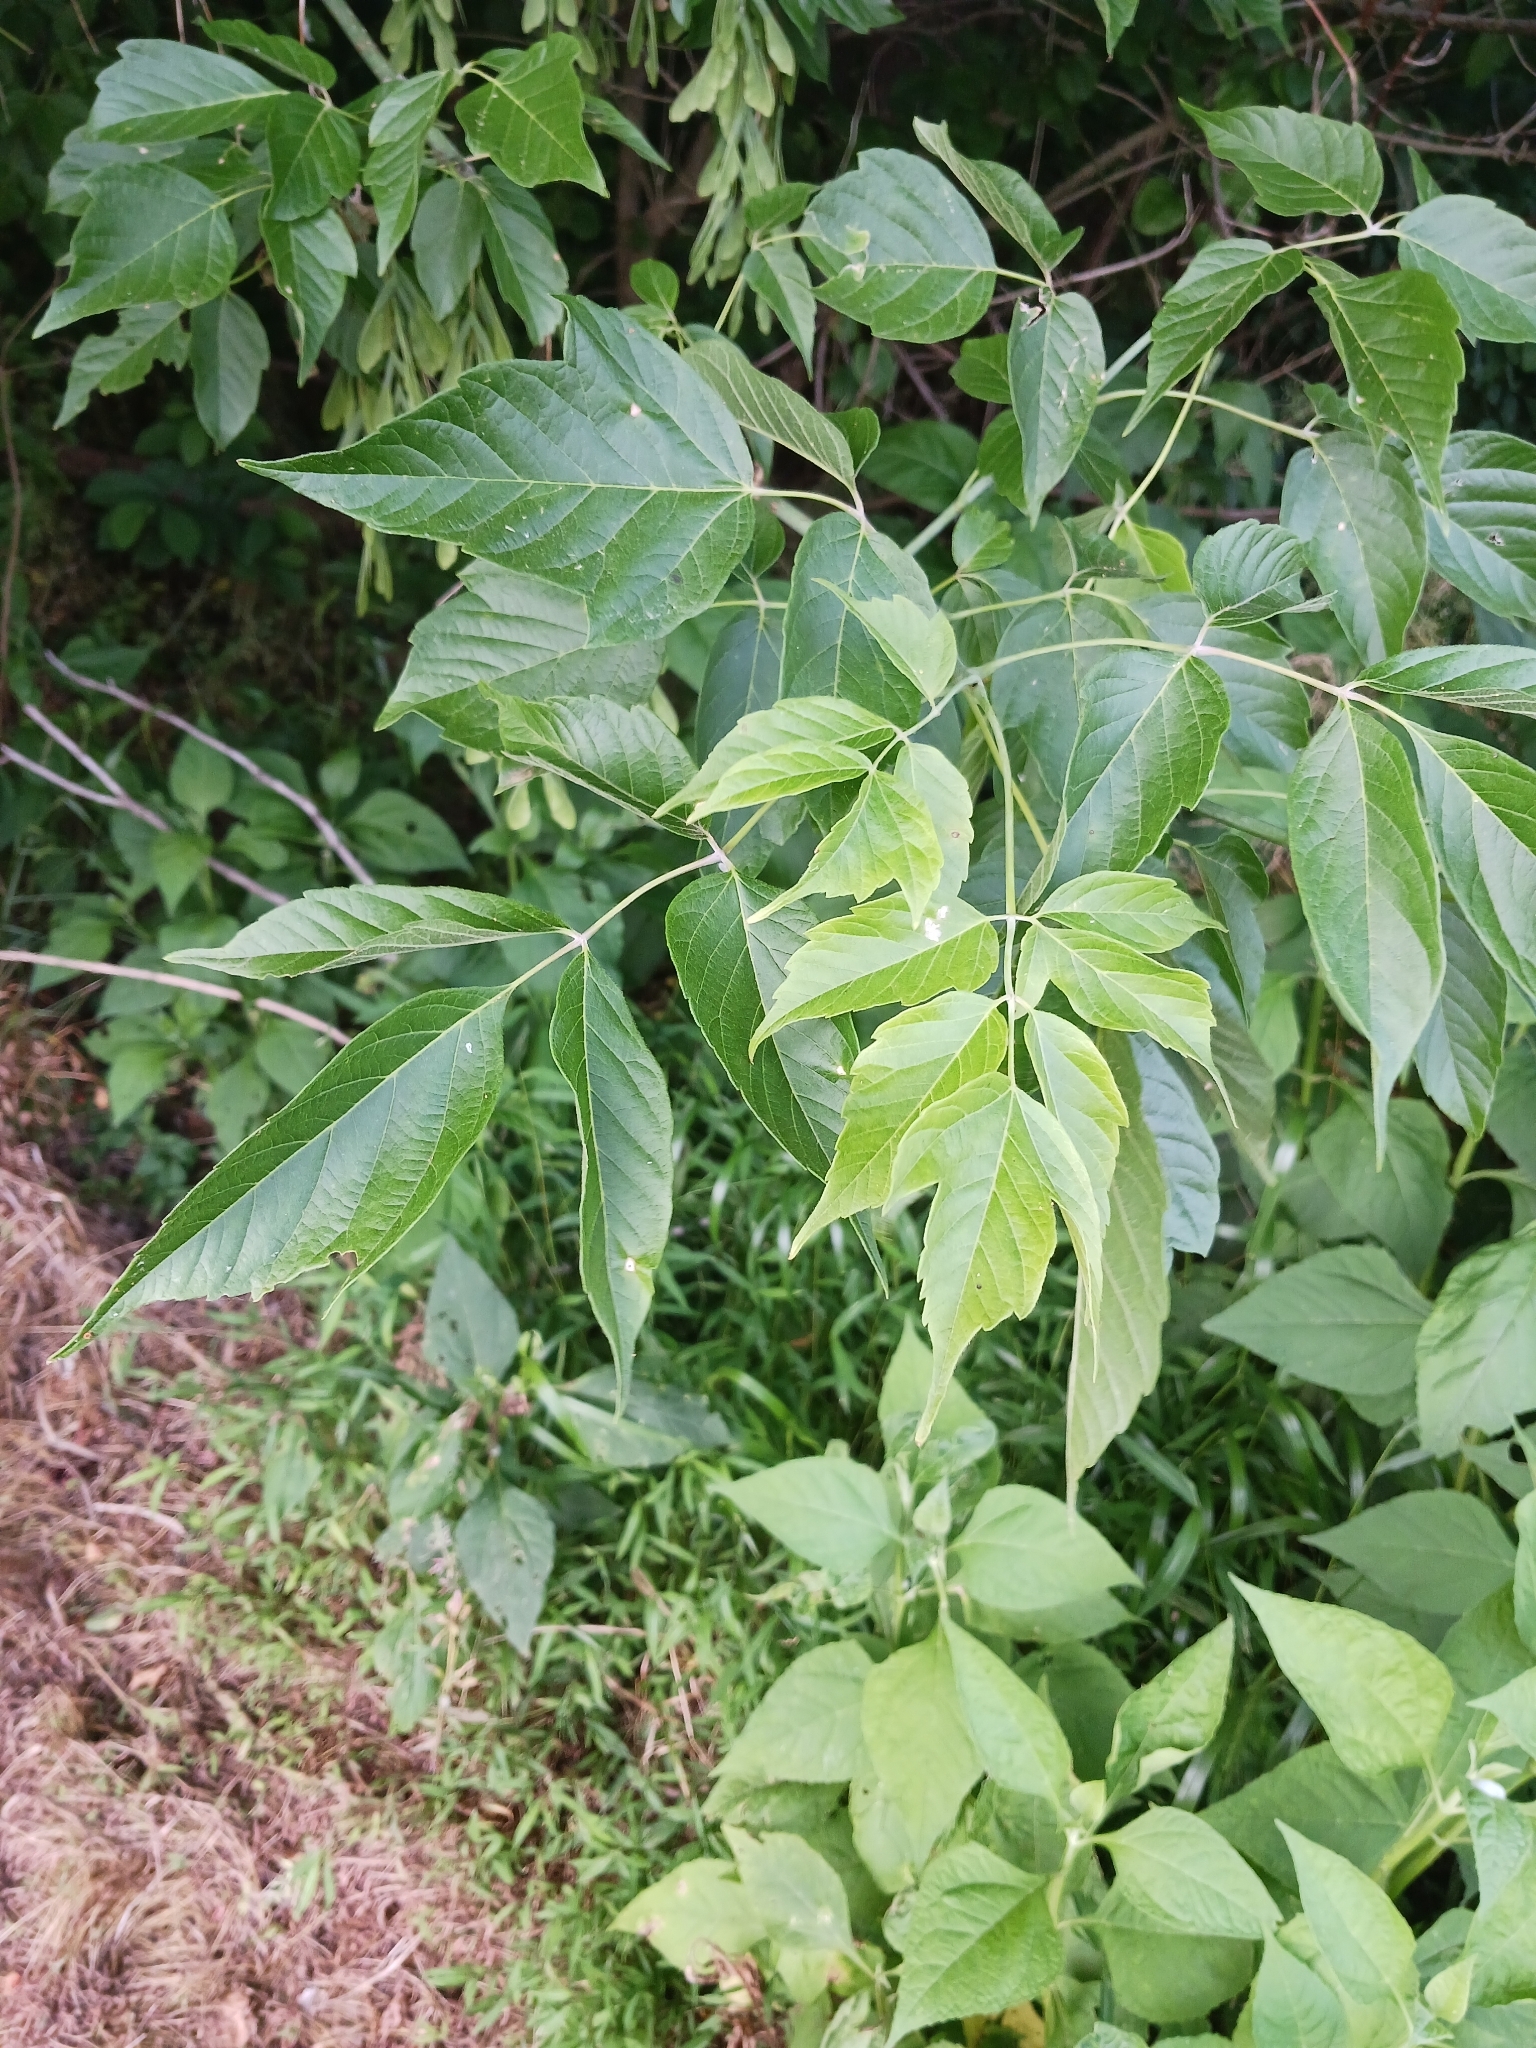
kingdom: Plantae
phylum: Tracheophyta
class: Magnoliopsida
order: Sapindales
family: Sapindaceae
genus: Acer
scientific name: Acer negundo
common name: Ashleaf maple
